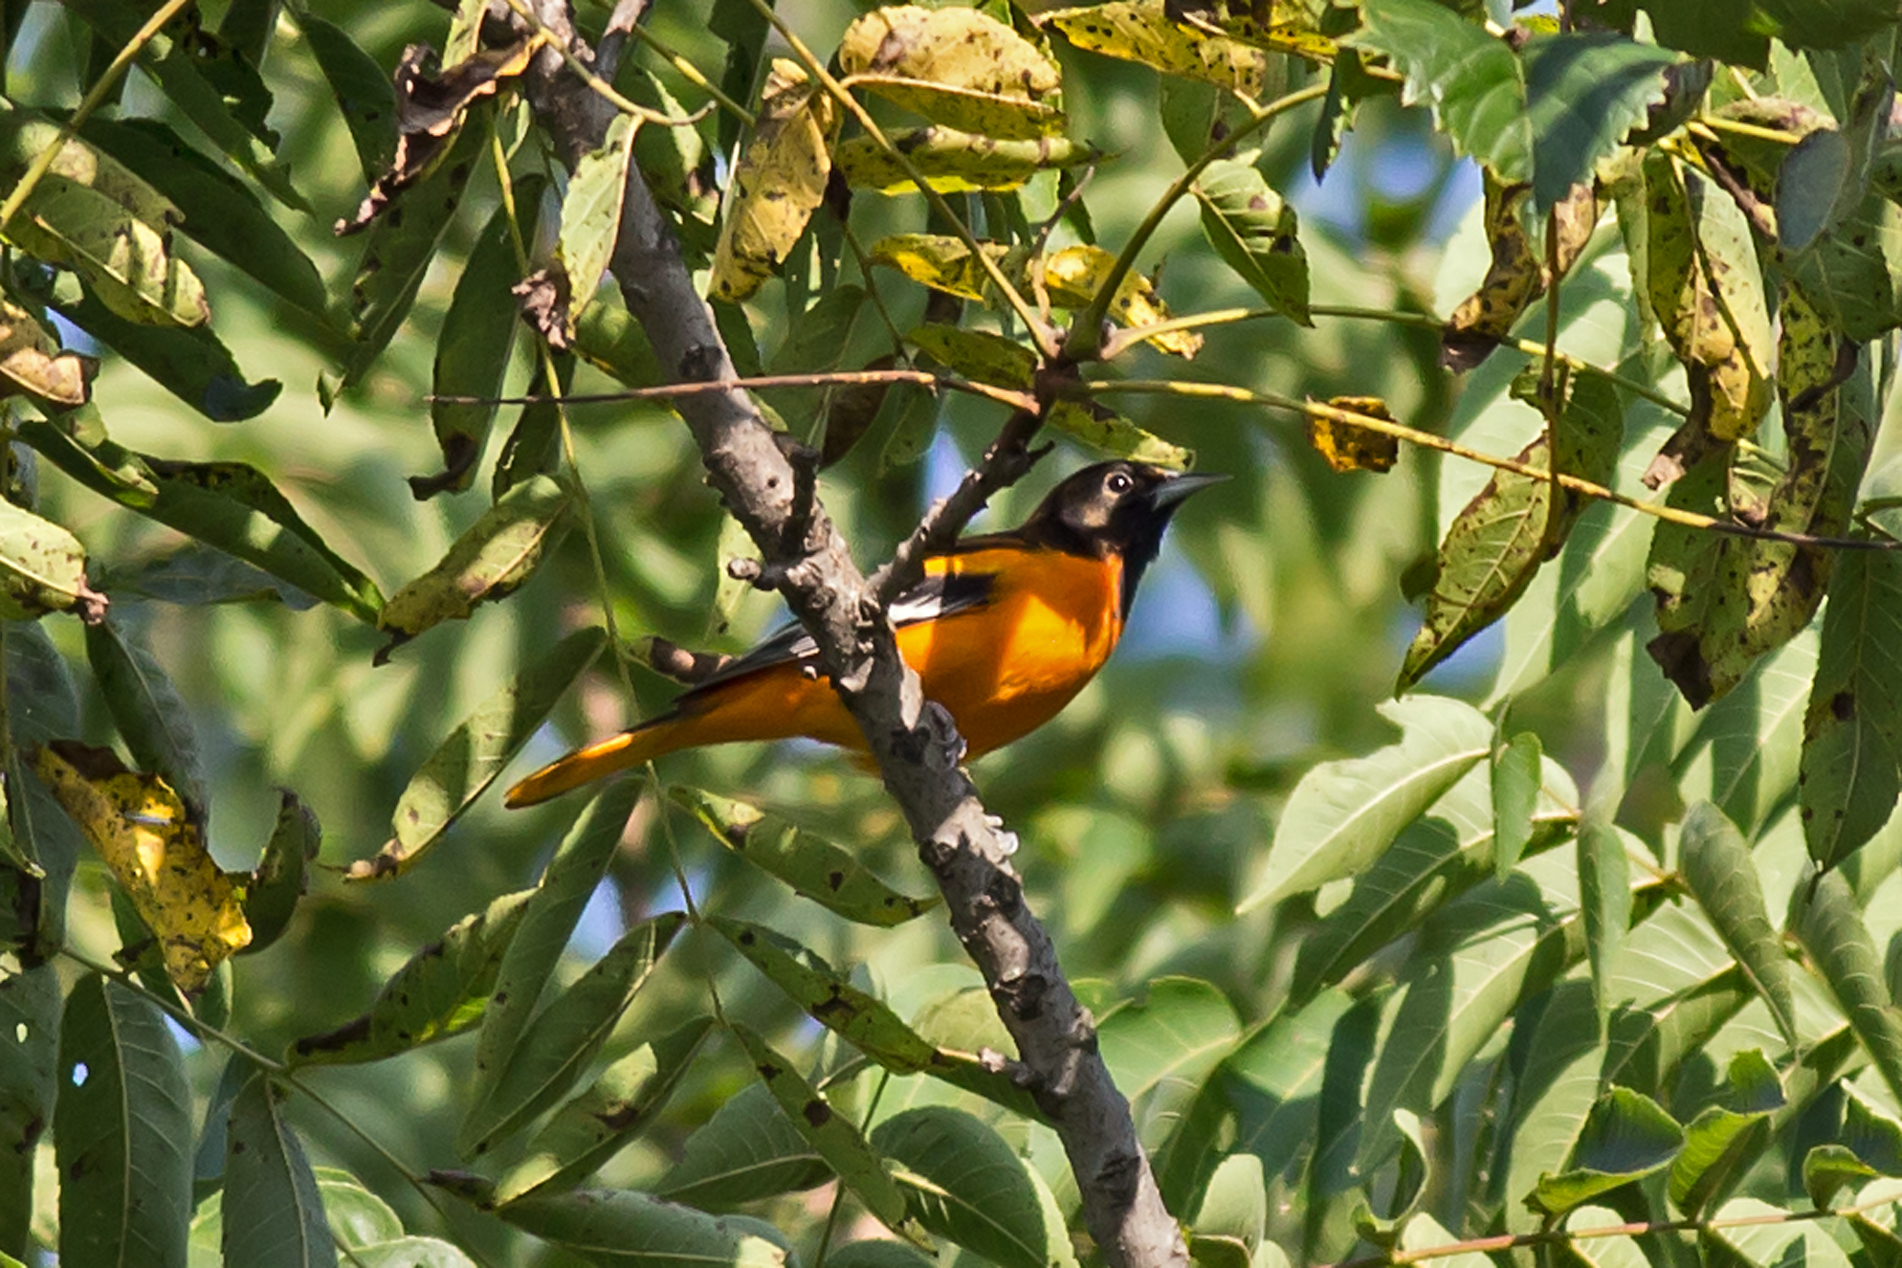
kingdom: Animalia
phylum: Chordata
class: Aves
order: Passeriformes
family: Icteridae
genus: Icterus
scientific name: Icterus galbula
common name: Baltimore oriole
